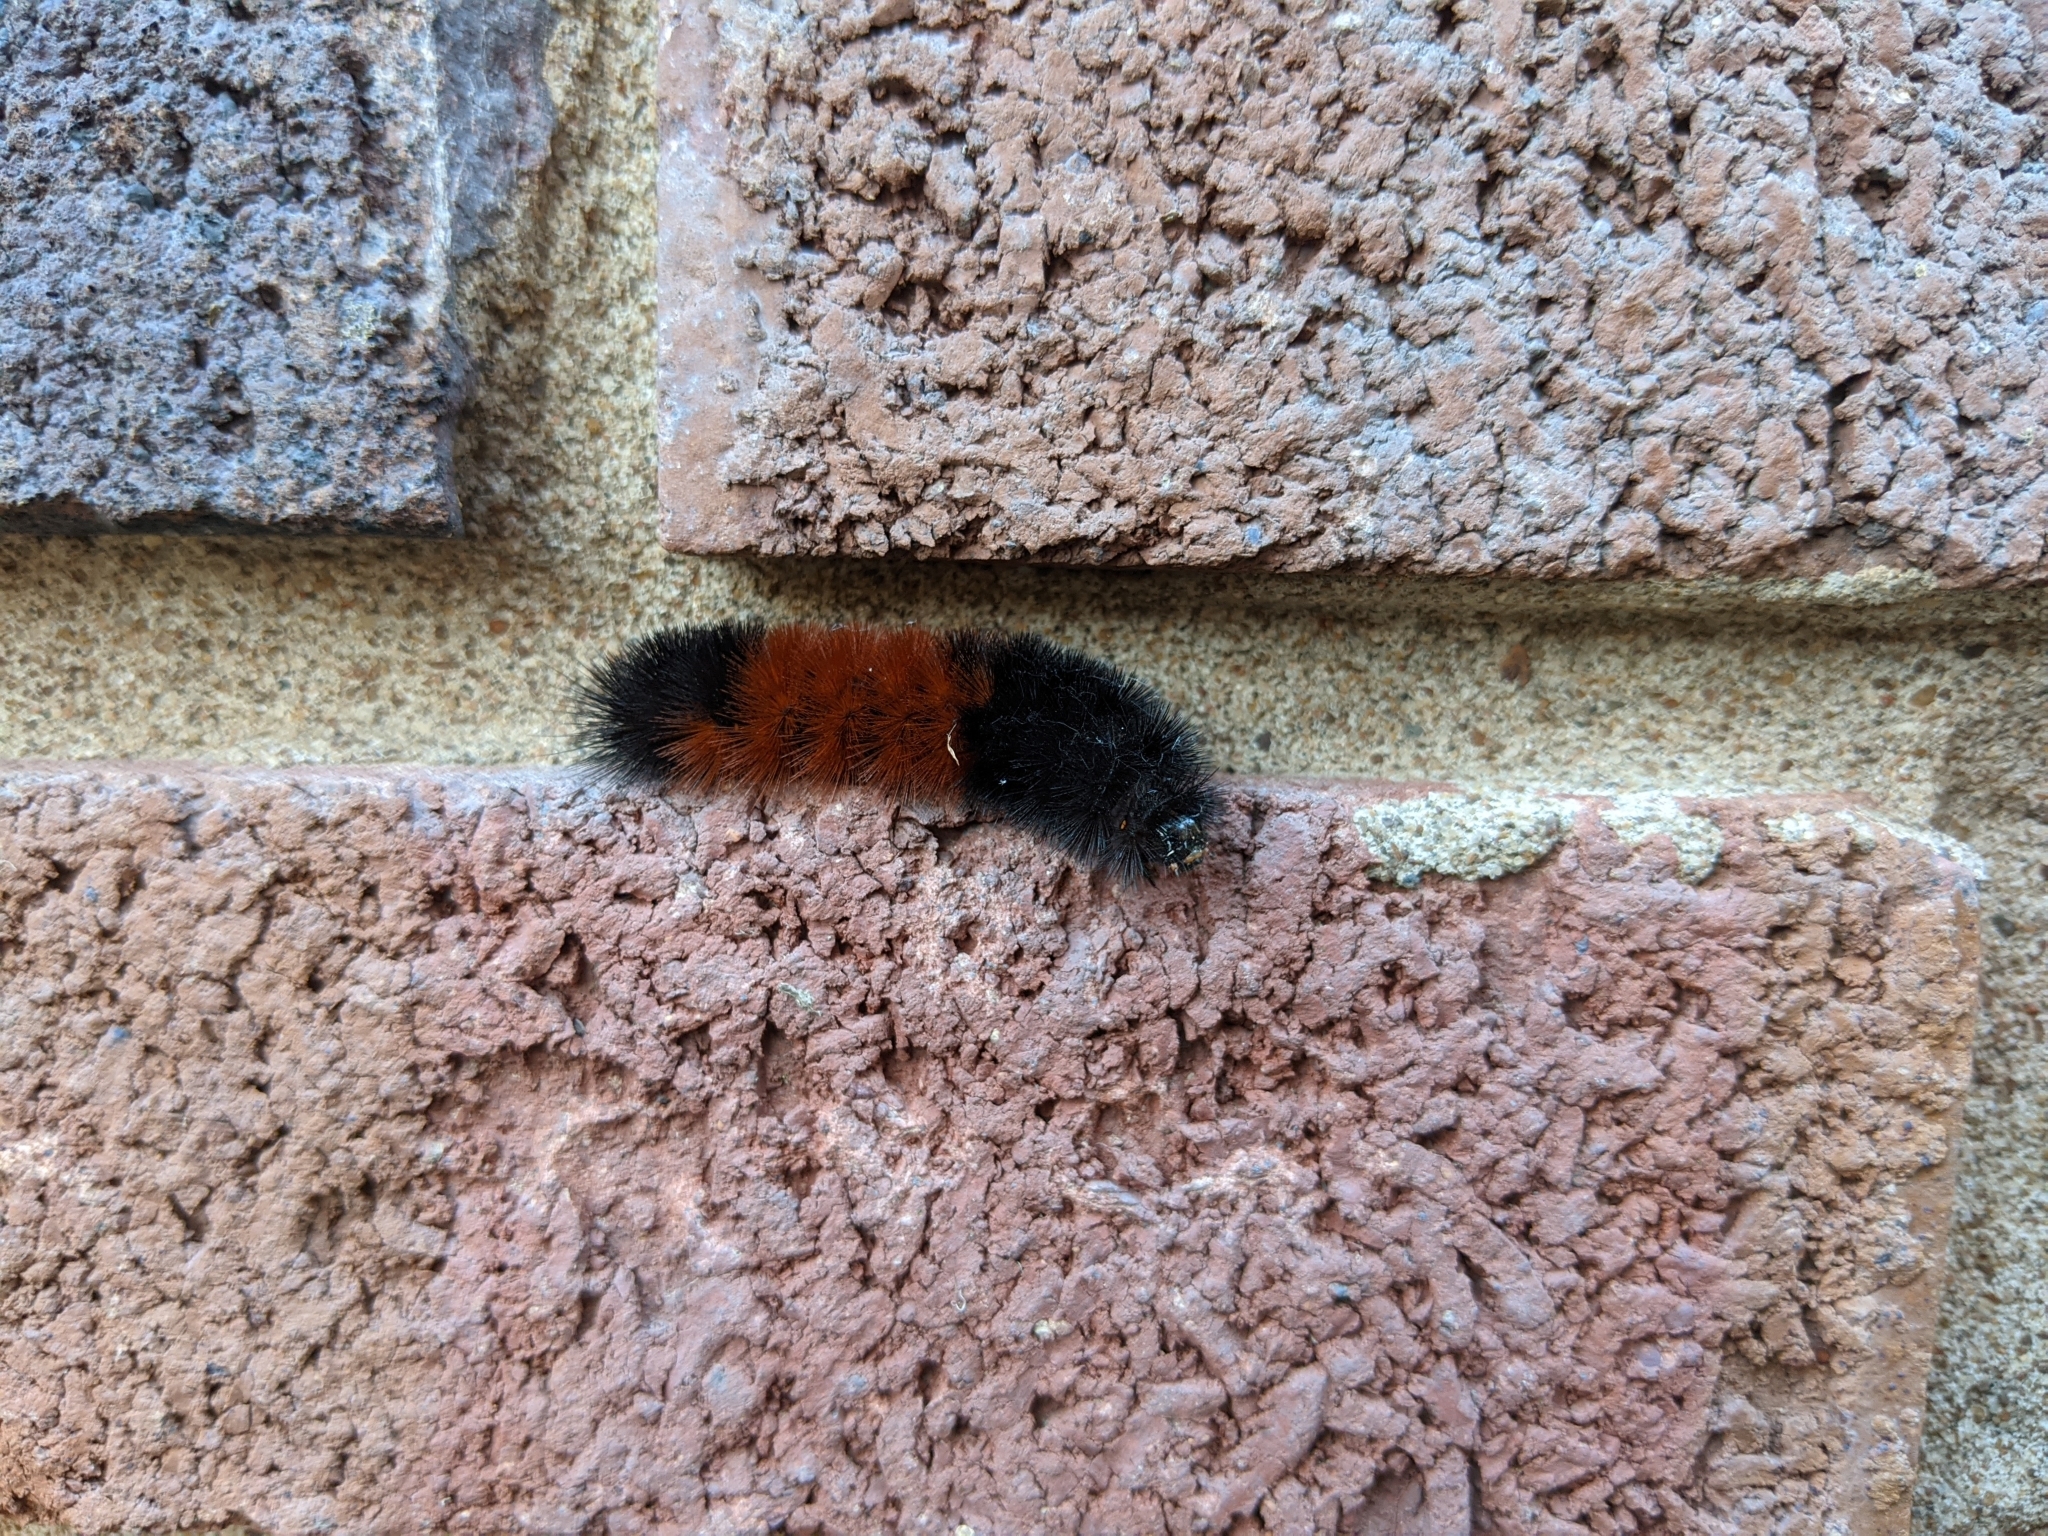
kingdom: Animalia
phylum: Arthropoda
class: Insecta
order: Lepidoptera
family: Erebidae
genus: Pyrrharctia
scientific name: Pyrrharctia isabella
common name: Isabella tiger moth
